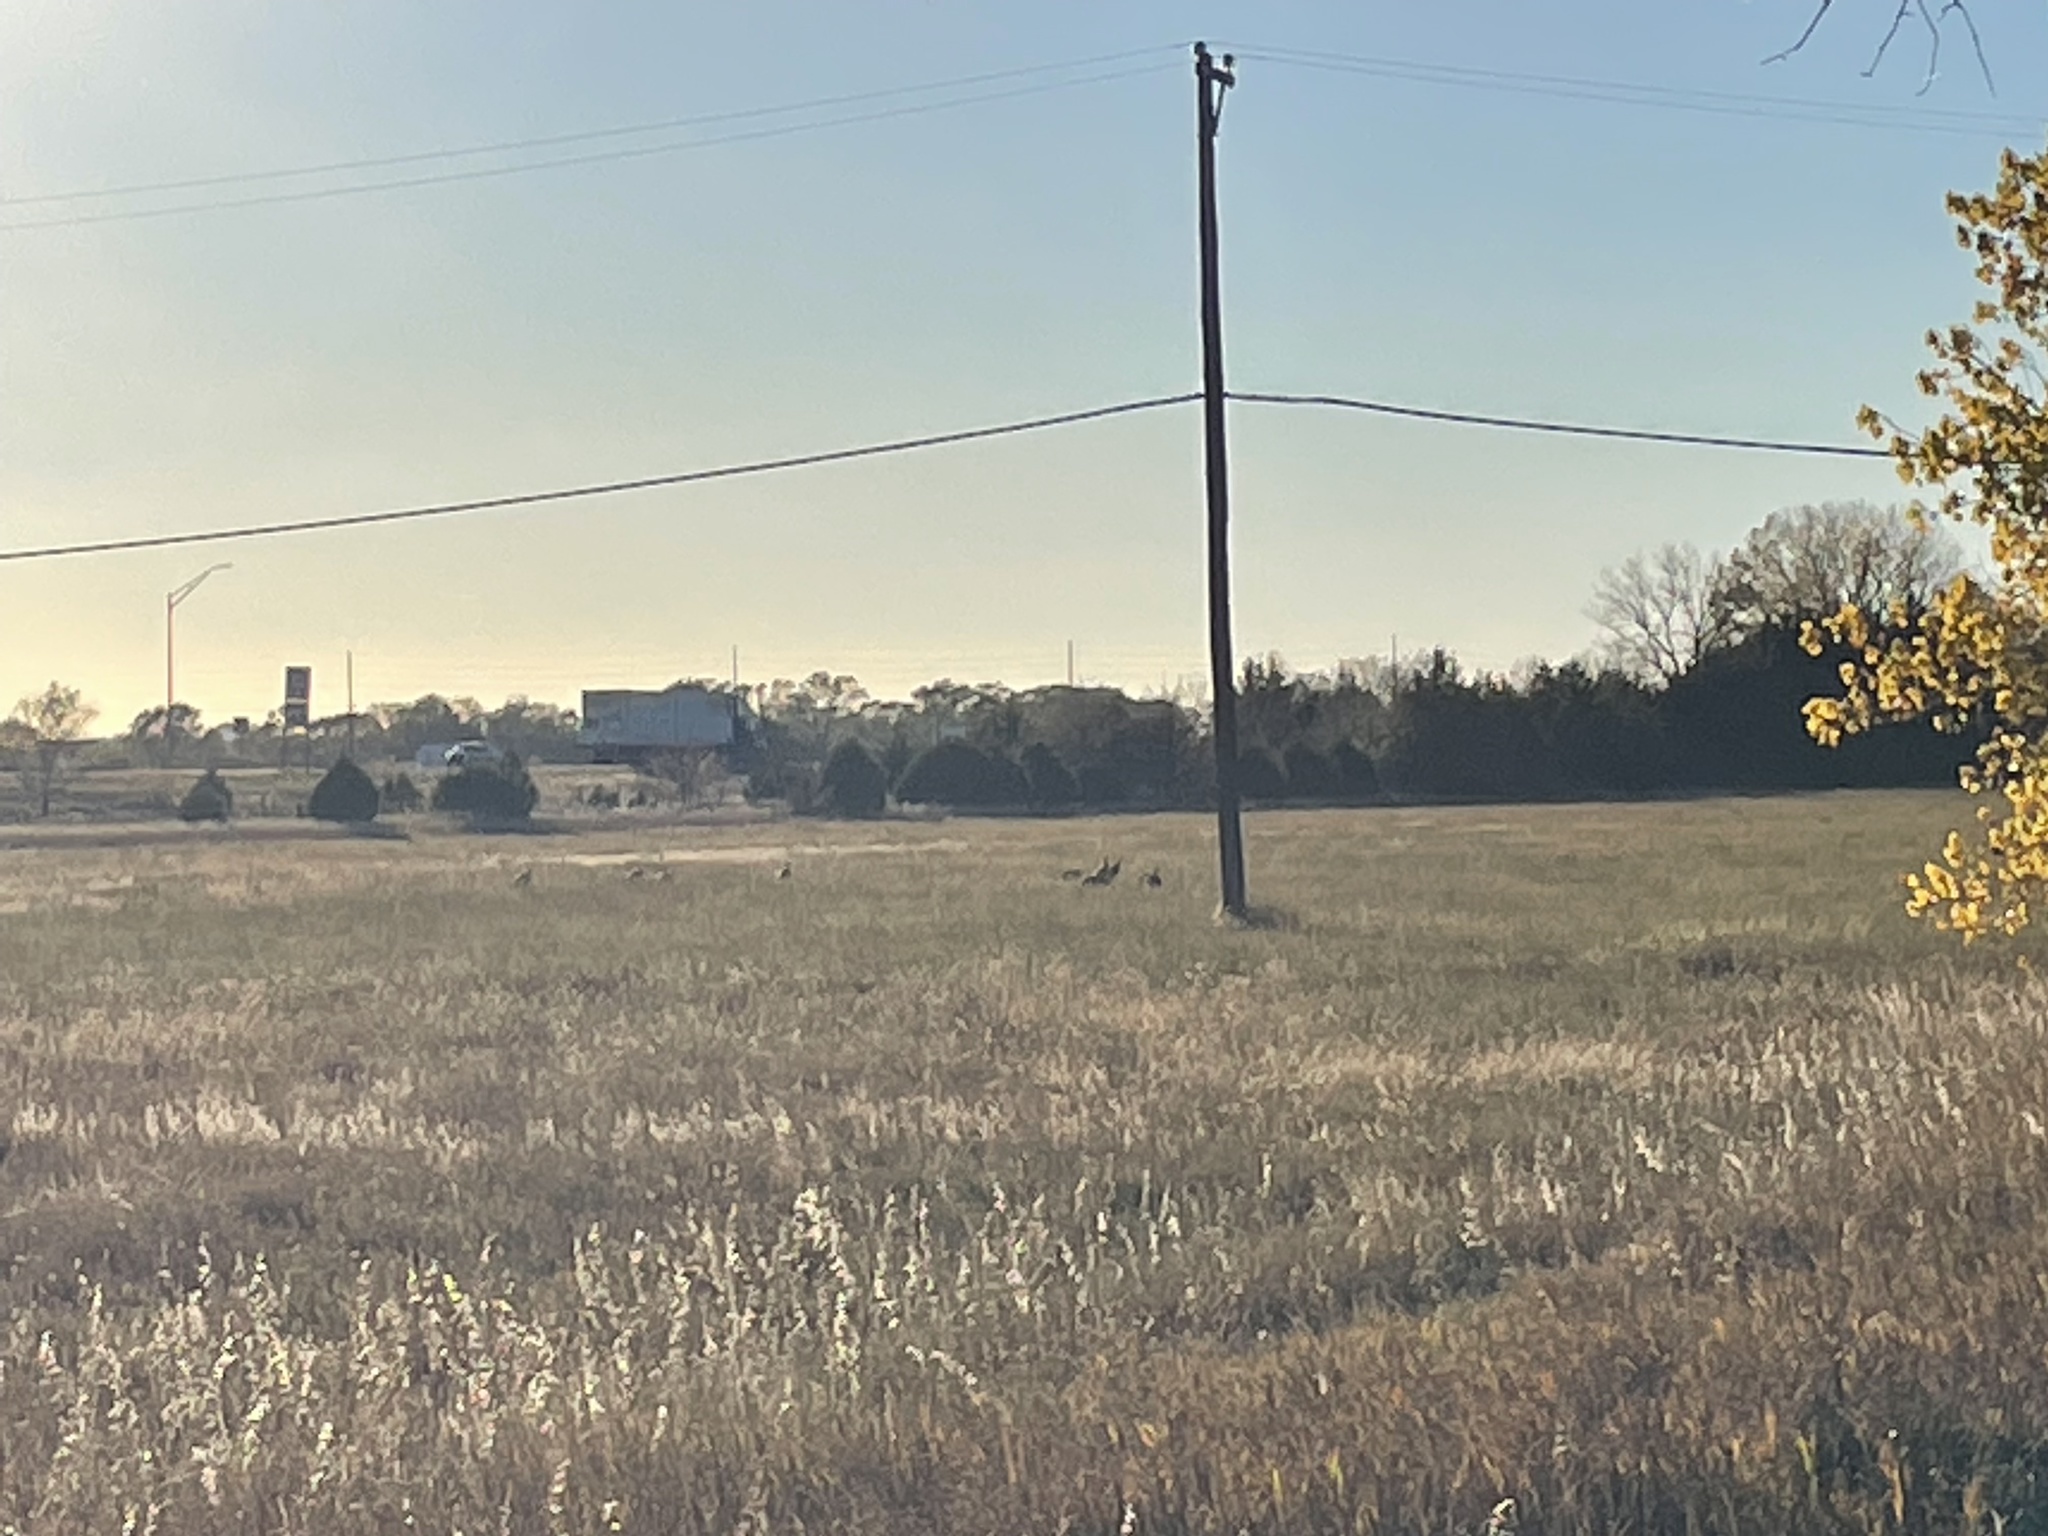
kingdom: Animalia
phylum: Chordata
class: Aves
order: Galliformes
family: Phasianidae
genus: Meleagris
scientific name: Meleagris gallopavo
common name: Wild turkey
